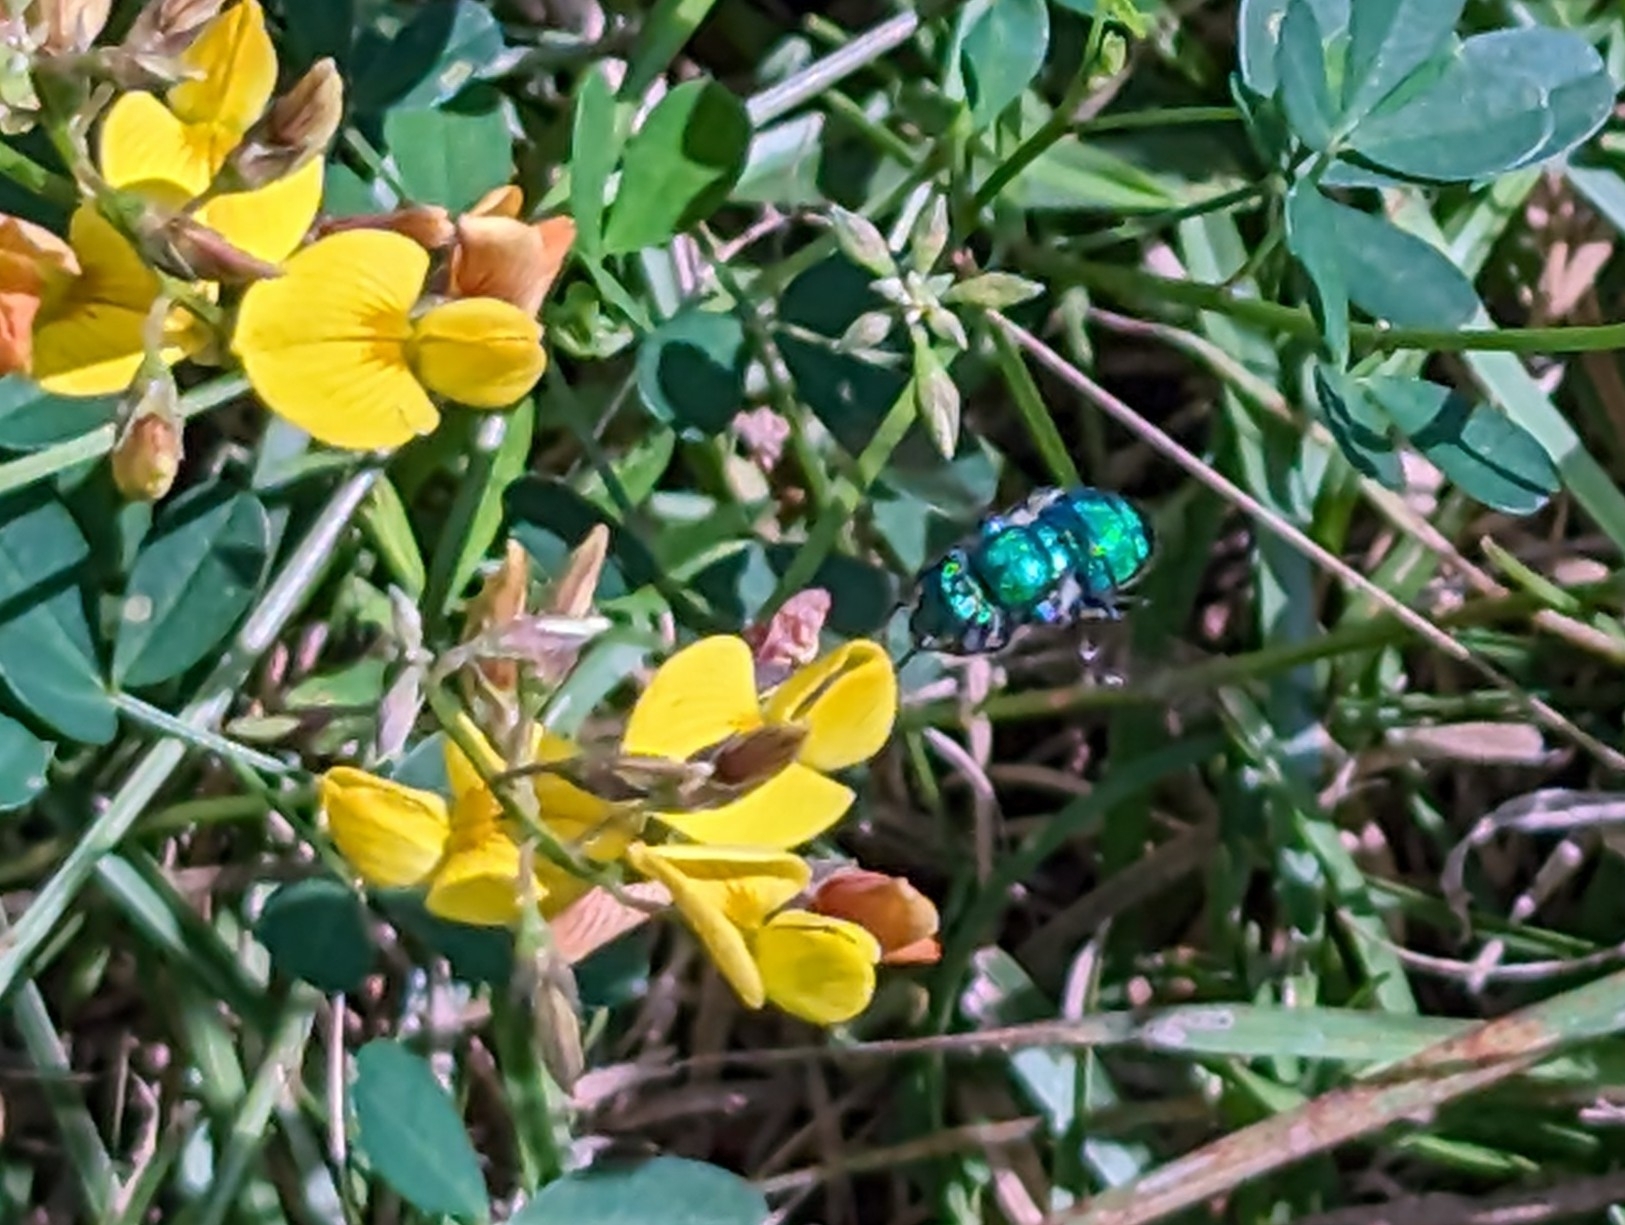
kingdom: Animalia
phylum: Arthropoda
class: Insecta
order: Hymenoptera
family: Apidae
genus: Euglossa
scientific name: Euglossa dilemma
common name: Green orchid bee
